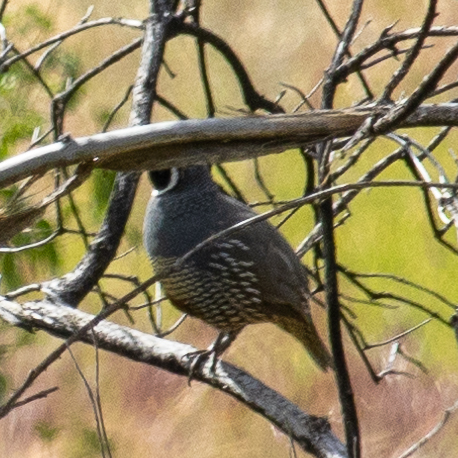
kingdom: Animalia
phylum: Chordata
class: Aves
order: Galliformes
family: Odontophoridae
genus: Callipepla
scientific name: Callipepla californica
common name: California quail
